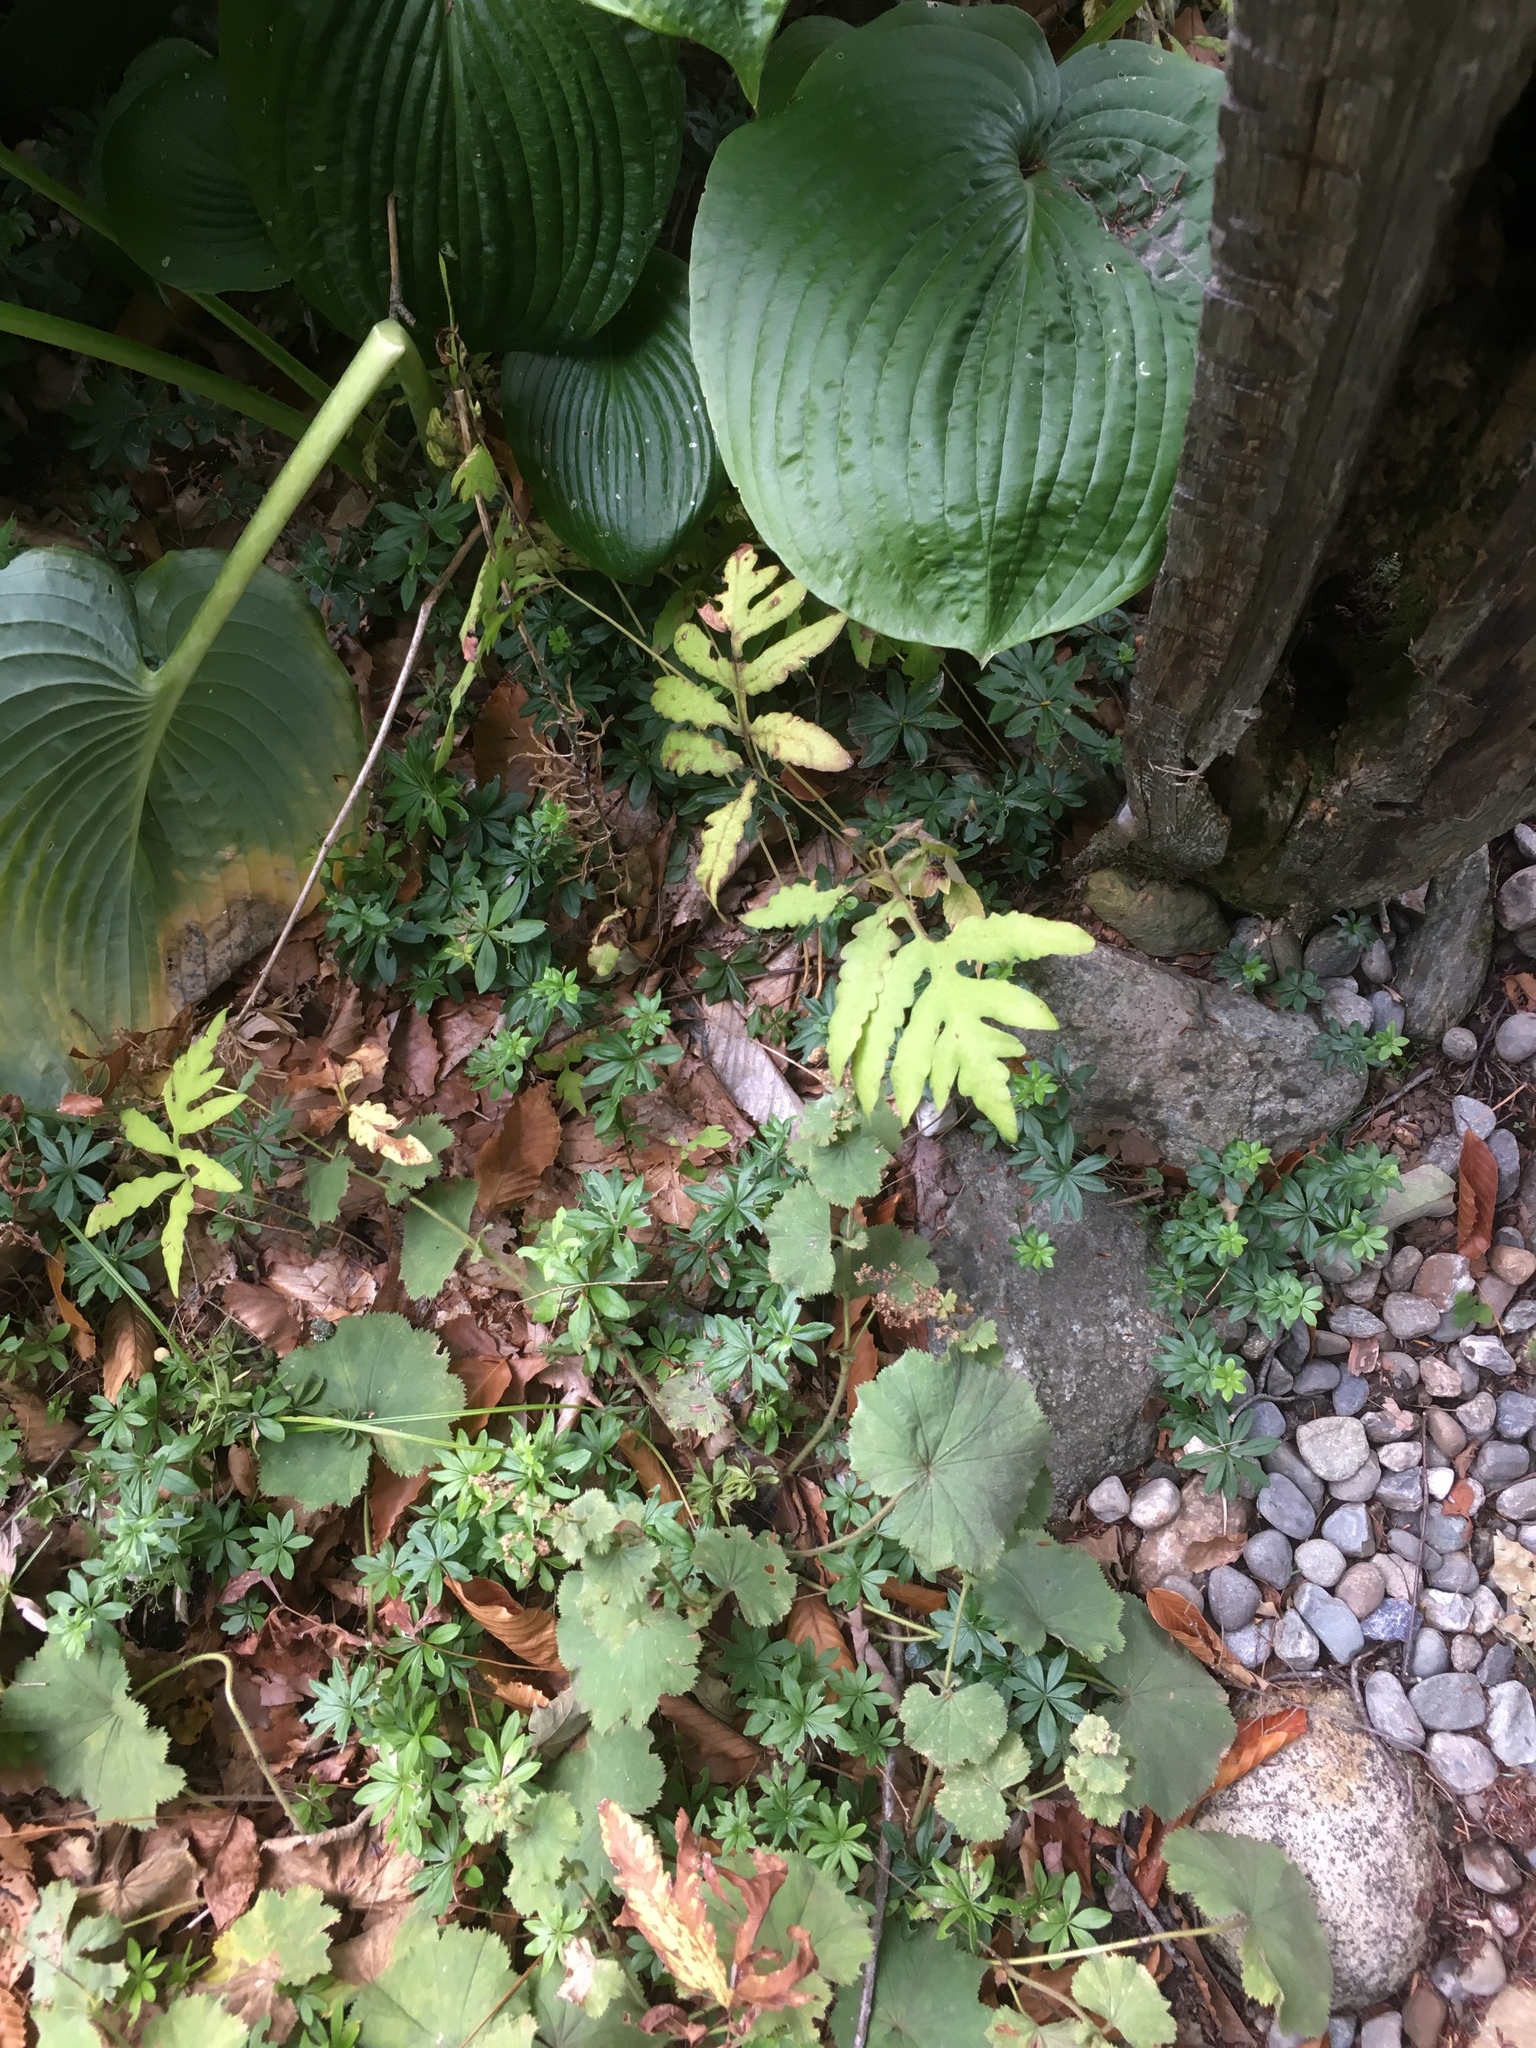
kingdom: Plantae
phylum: Tracheophyta
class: Polypodiopsida
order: Polypodiales
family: Onocleaceae
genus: Onoclea
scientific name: Onoclea sensibilis
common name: Sensitive fern
